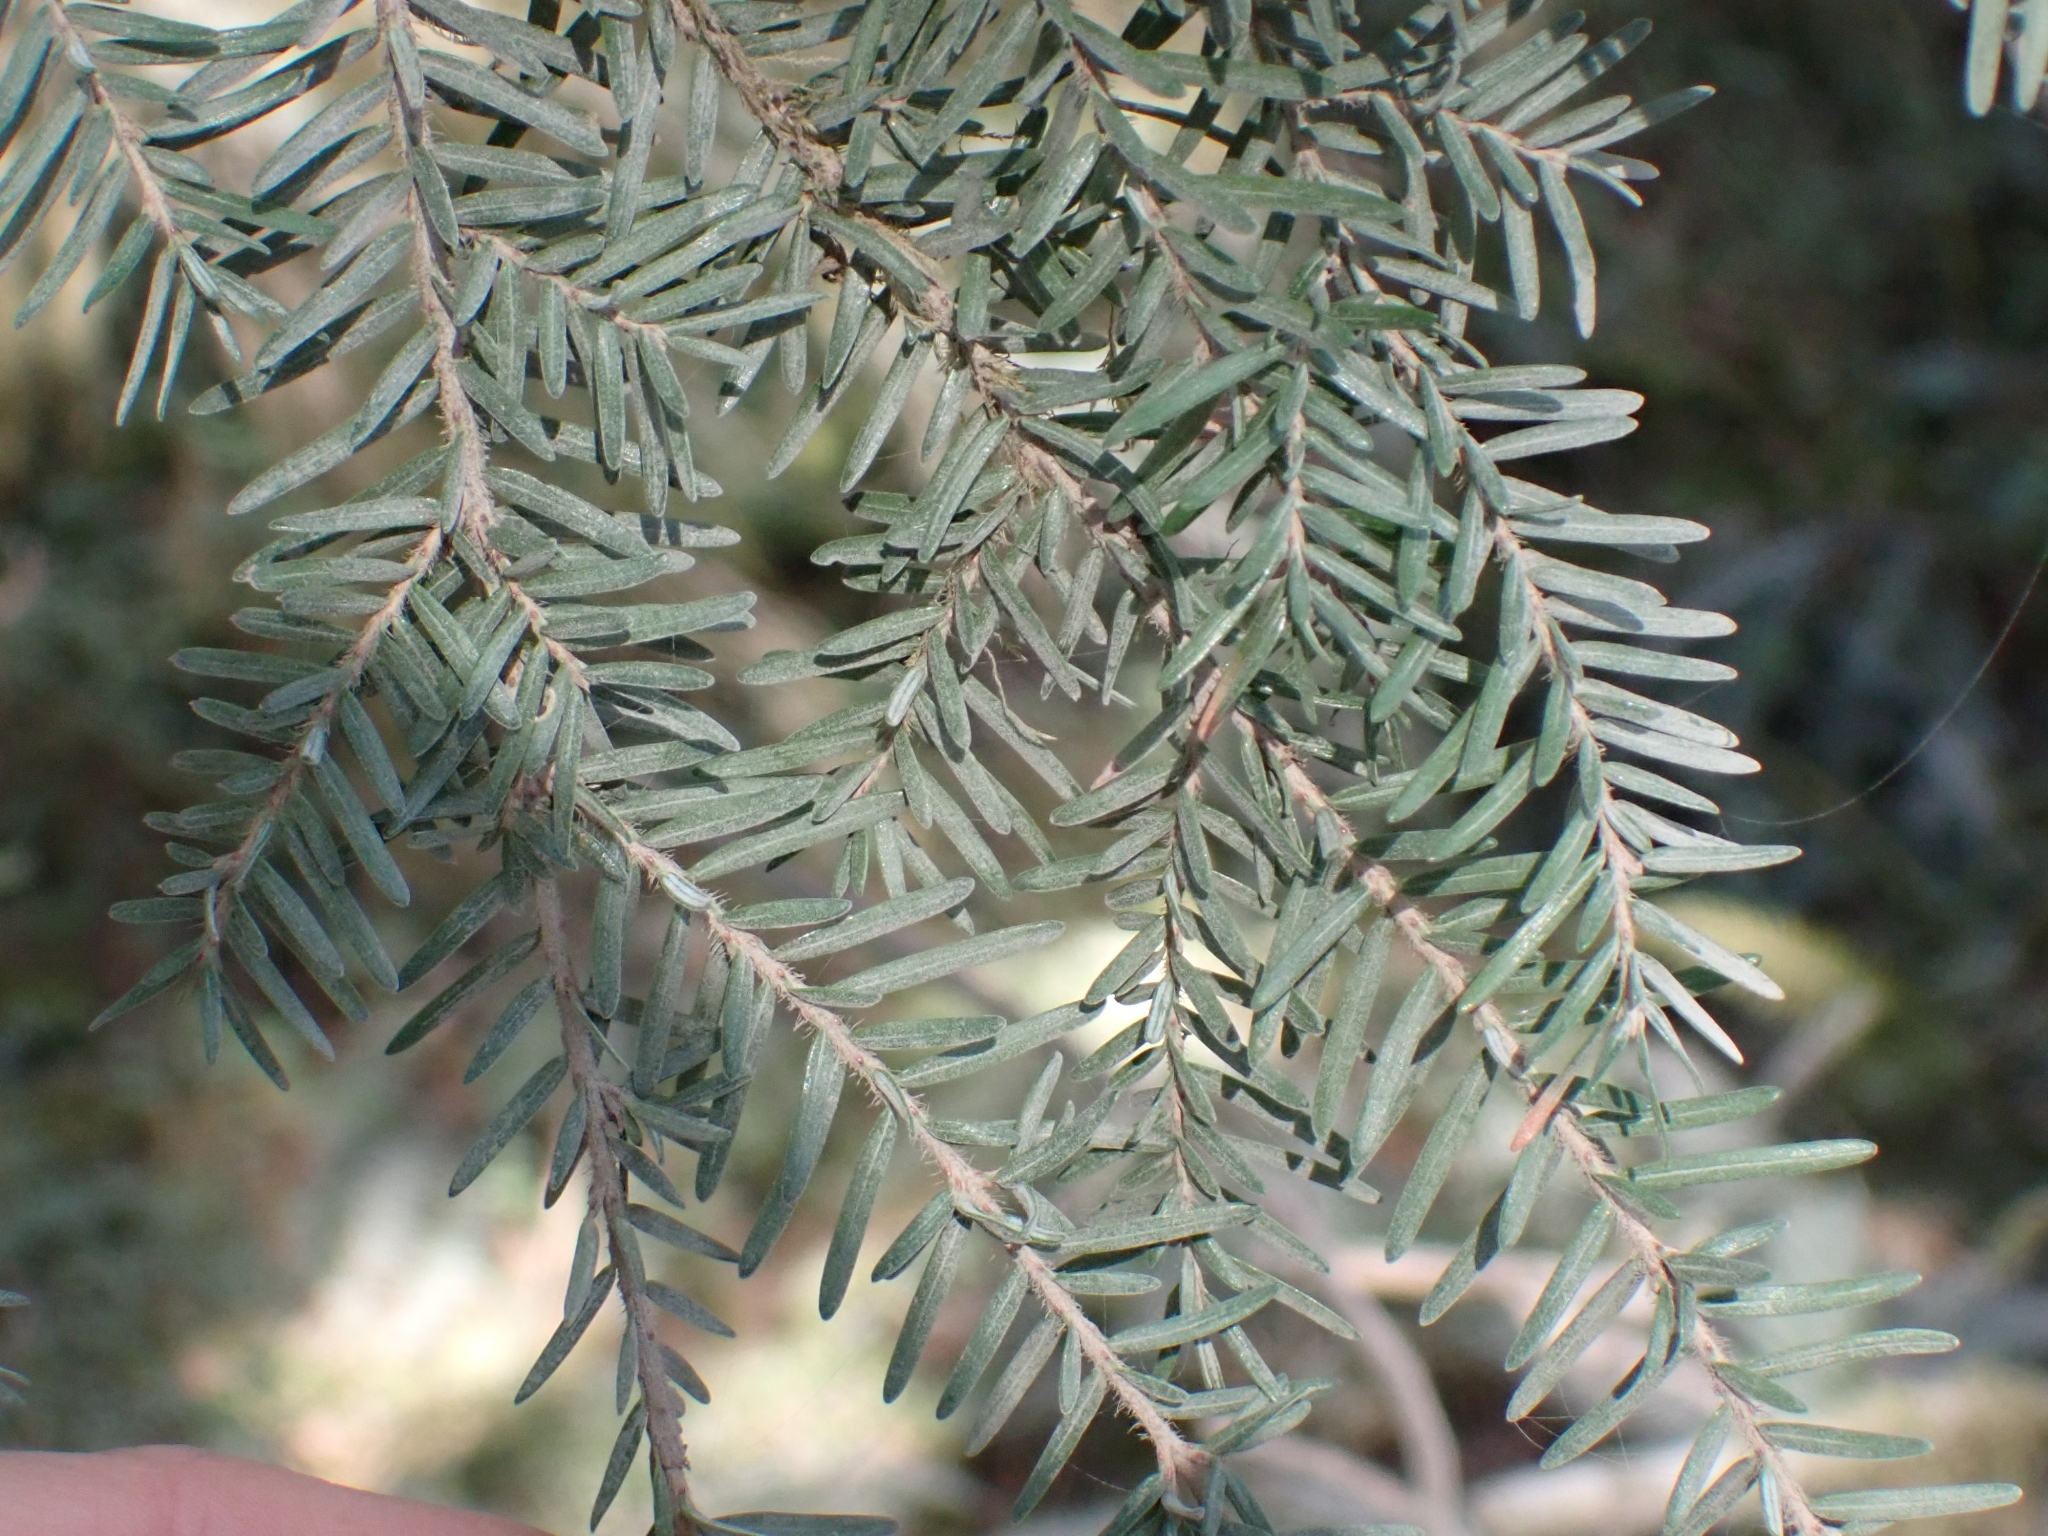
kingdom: Plantae
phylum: Tracheophyta
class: Pinopsida
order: Pinales
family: Pinaceae
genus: Tsuga
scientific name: Tsuga heterophylla
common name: Western hemlock
